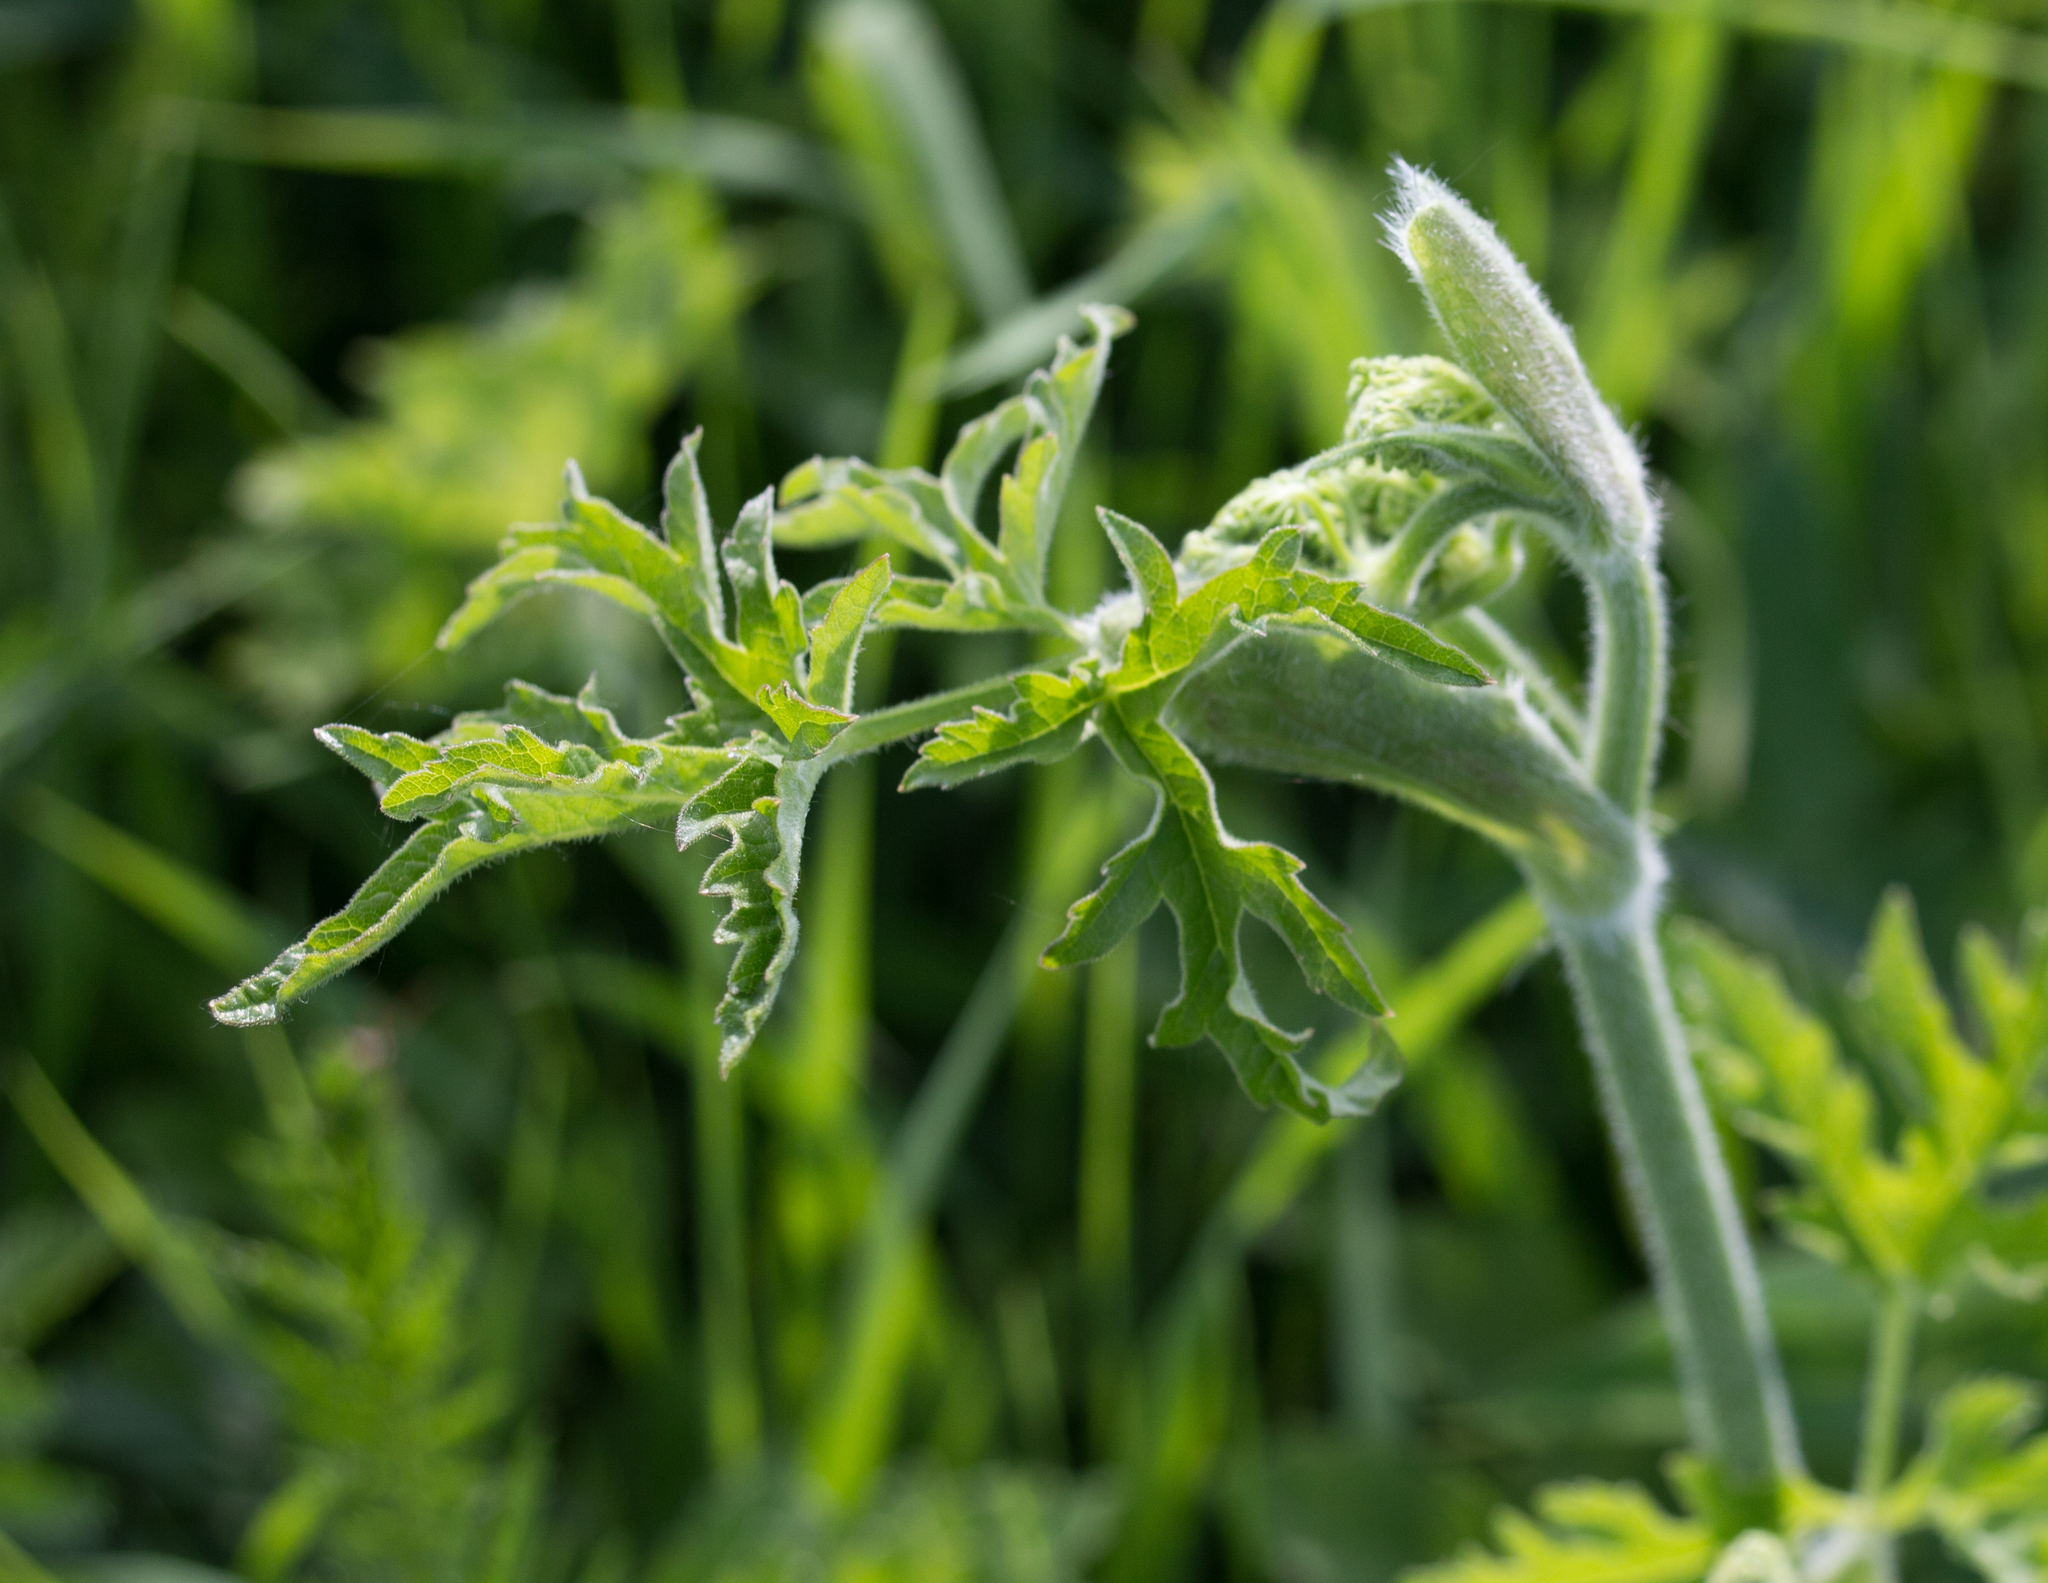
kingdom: Plantae
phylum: Tracheophyta
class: Magnoliopsida
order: Apiales
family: Apiaceae
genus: Heracleum
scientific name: Heracleum sphondylium
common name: Hogweed
